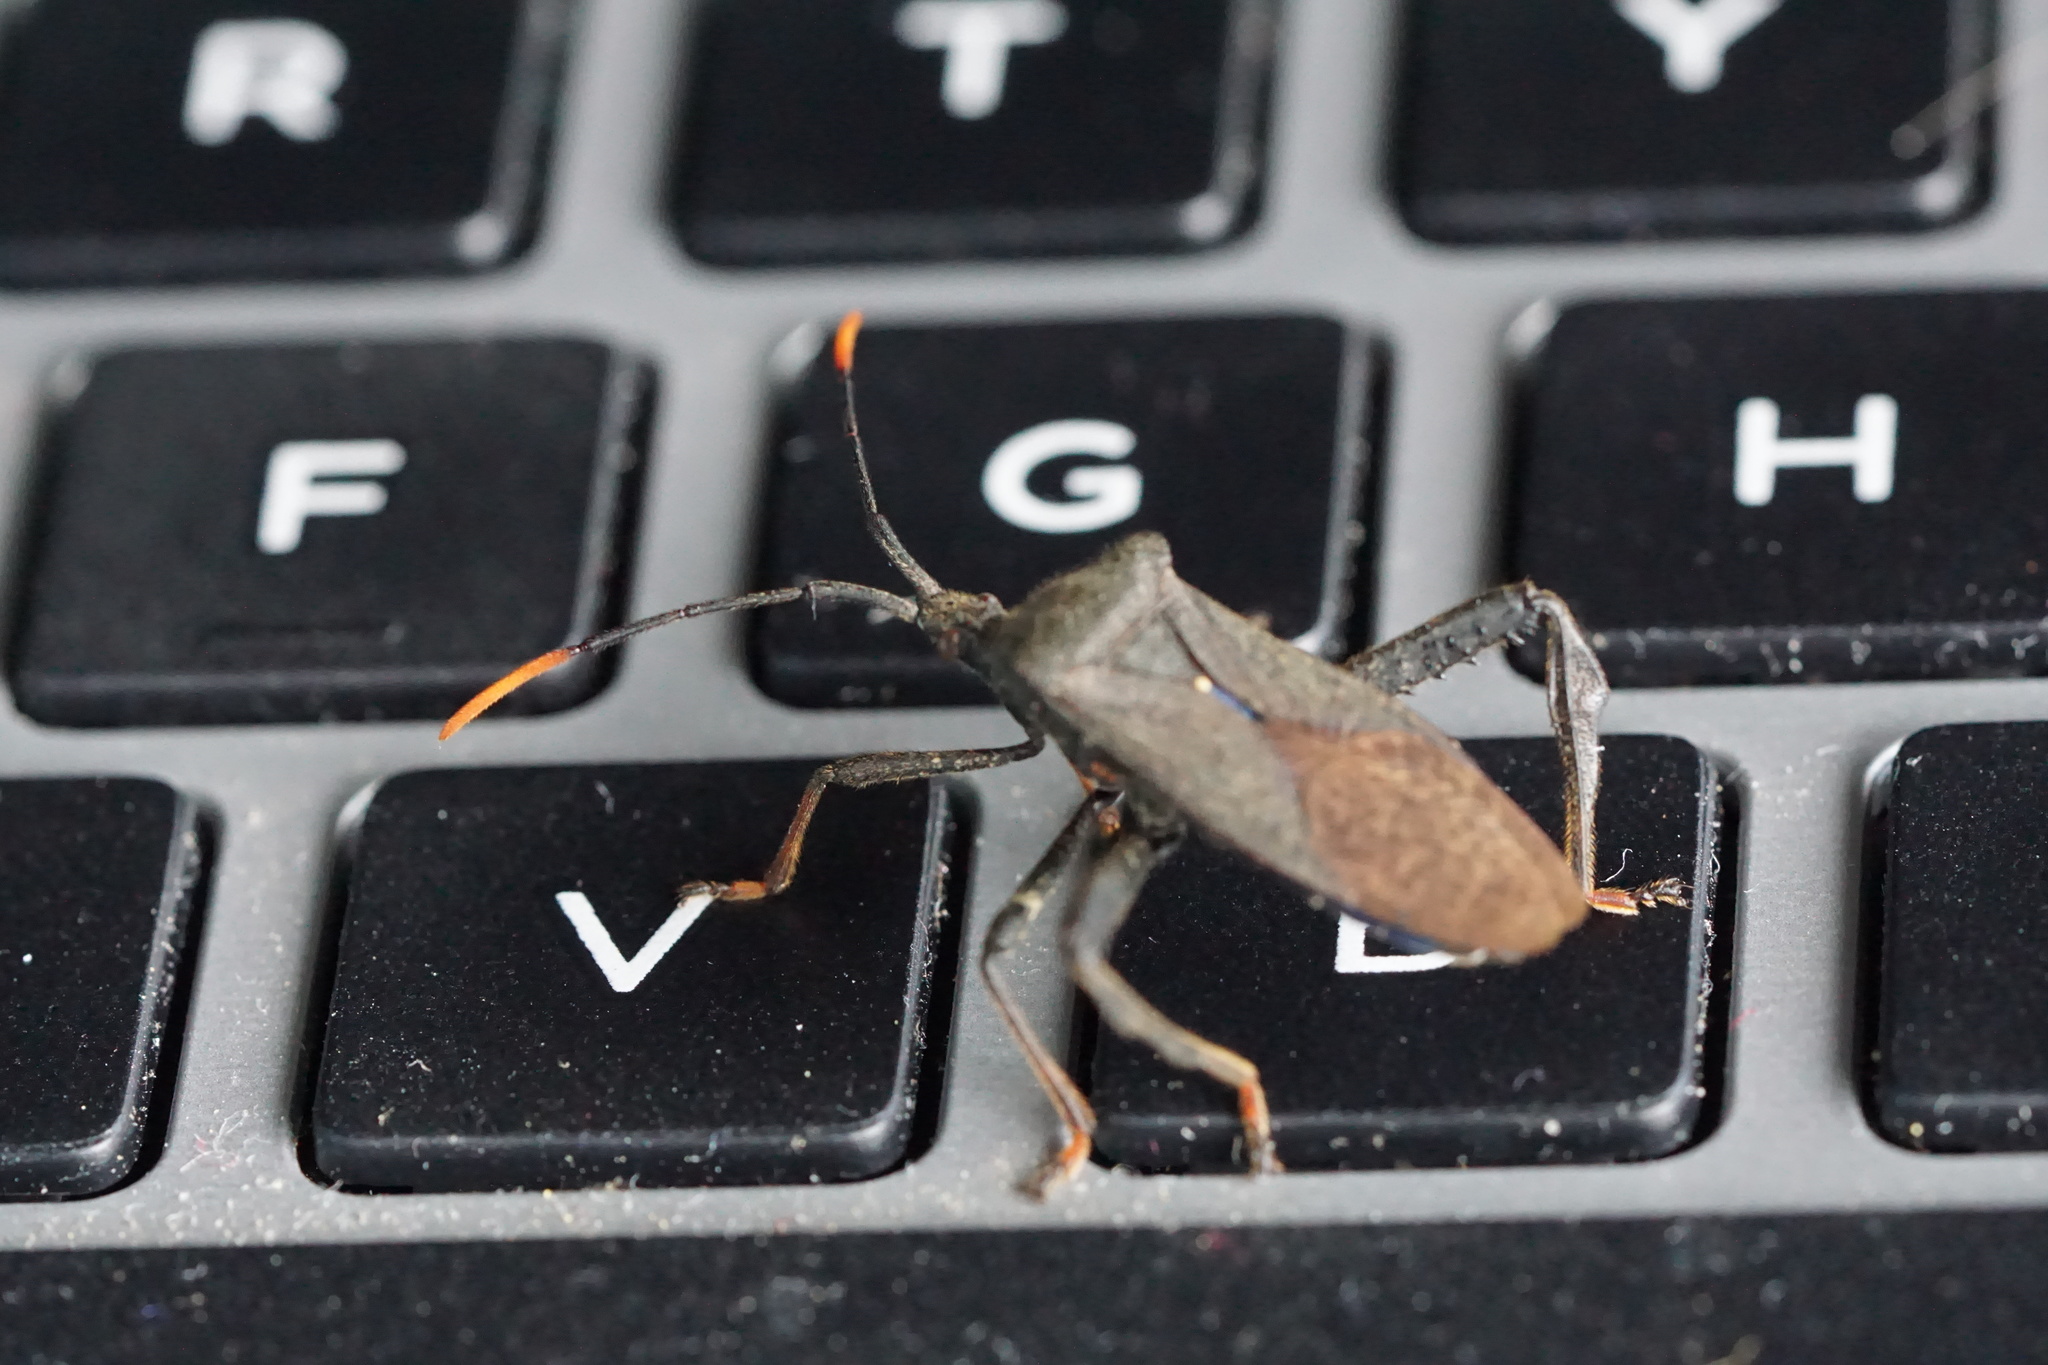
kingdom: Animalia
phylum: Arthropoda
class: Insecta
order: Hemiptera
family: Coreidae
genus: Acanthocephala
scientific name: Acanthocephala terminalis
